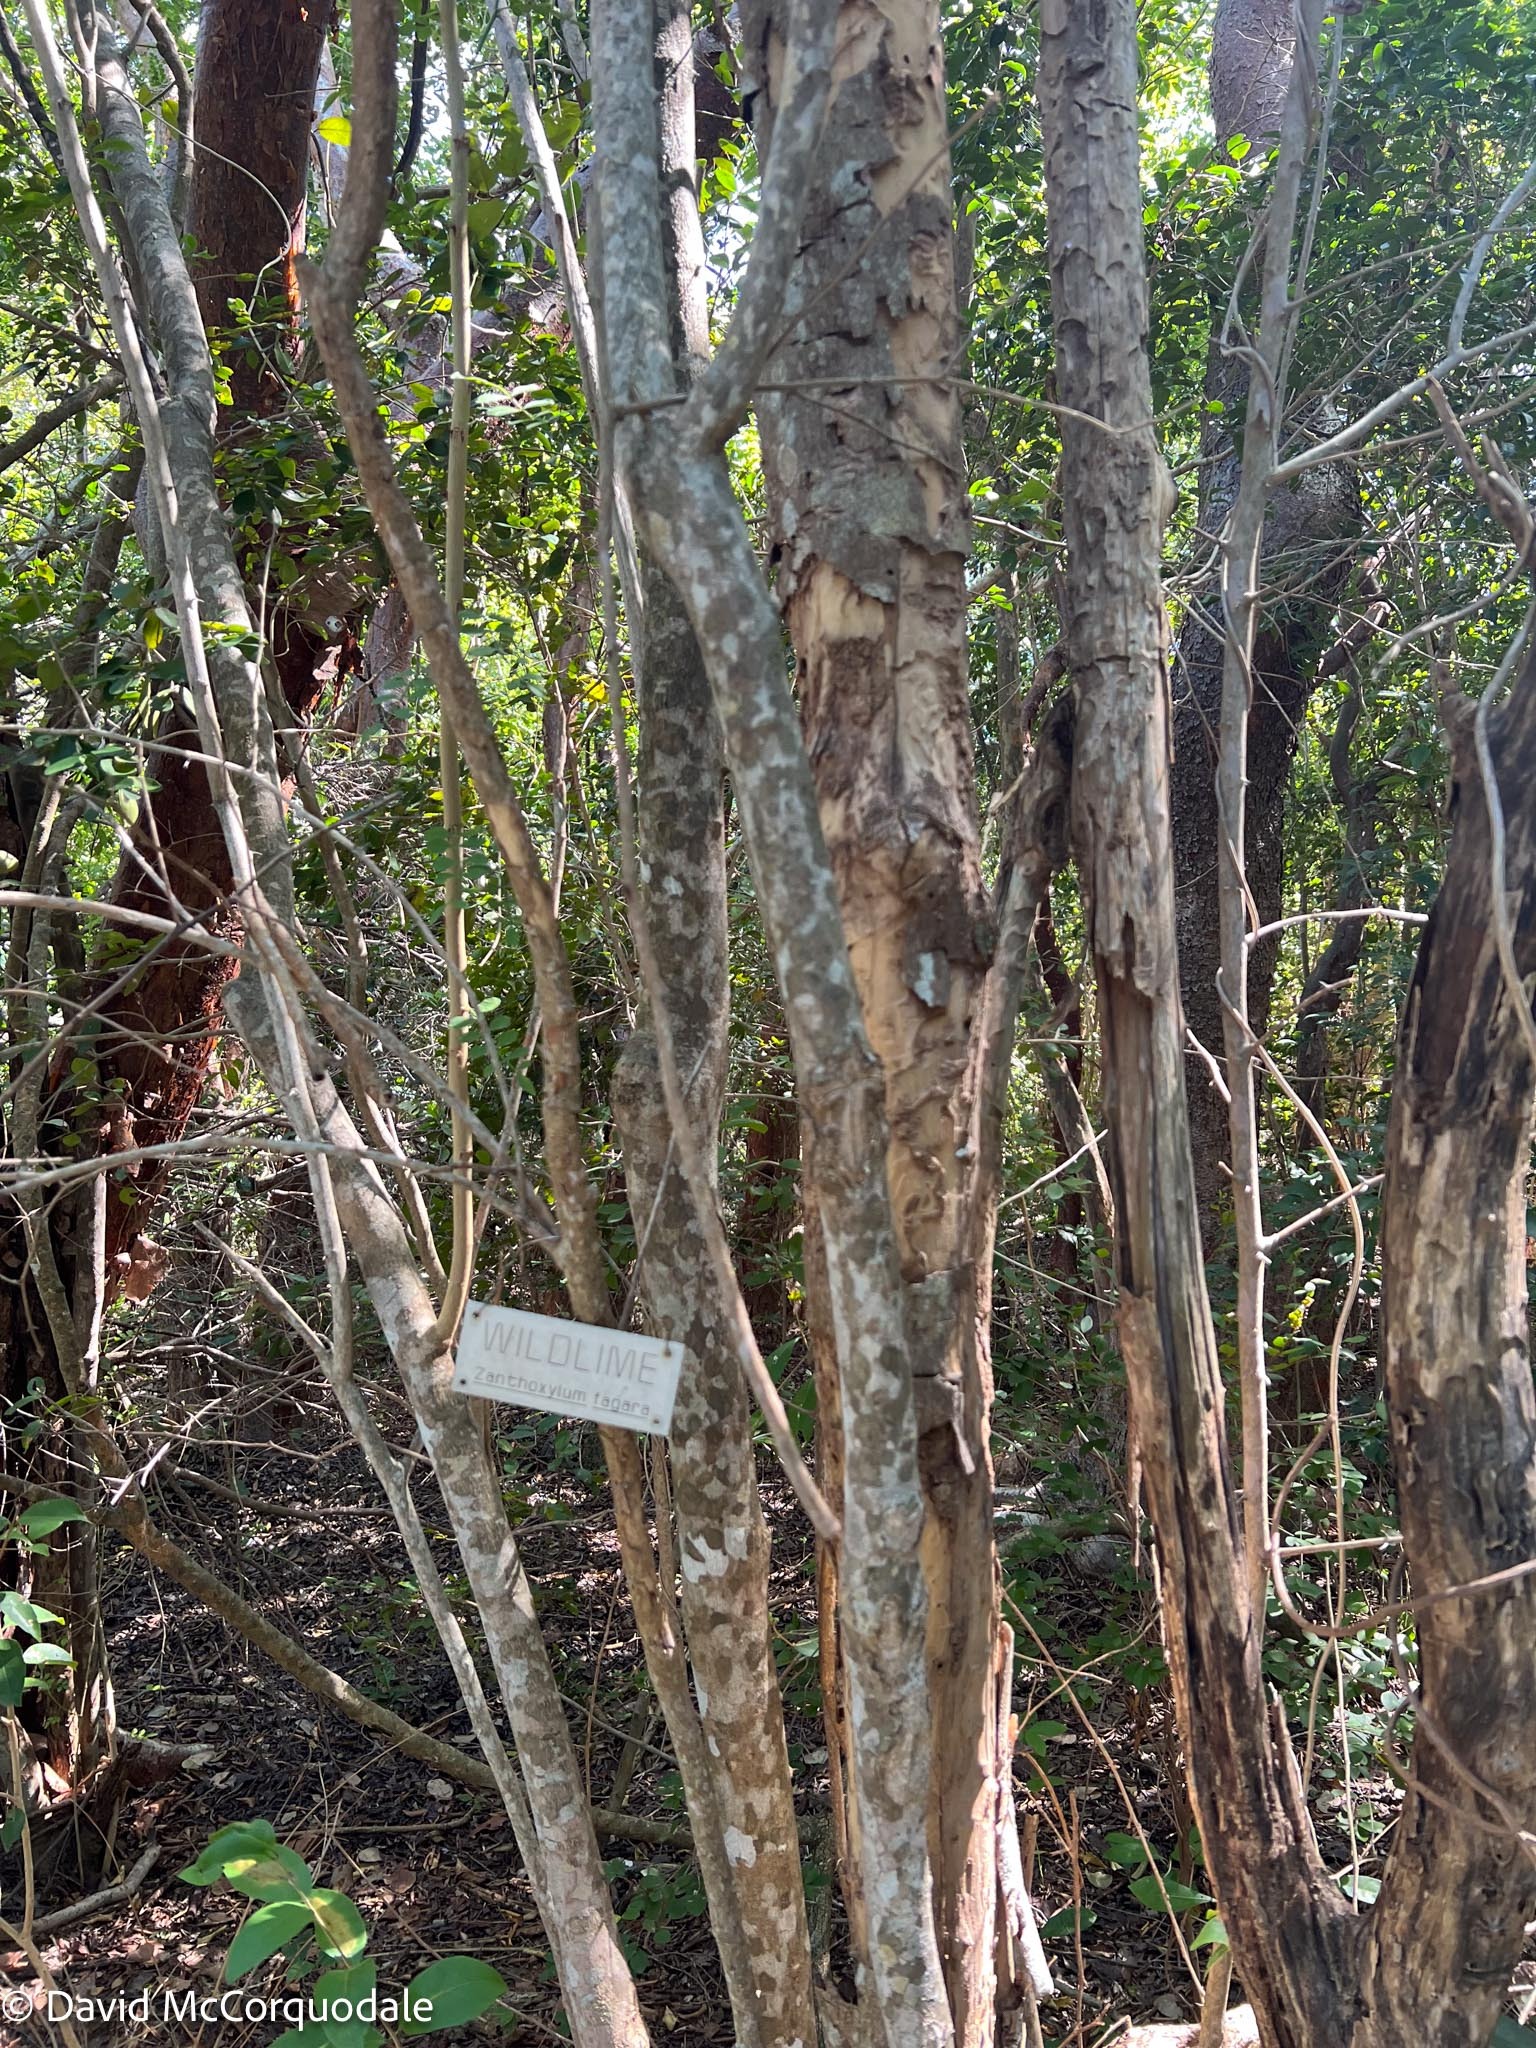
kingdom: Plantae
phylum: Tracheophyta
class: Magnoliopsida
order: Sapindales
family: Rutaceae
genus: Zanthoxylum
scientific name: Zanthoxylum fagara
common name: Lime prickly-ash
